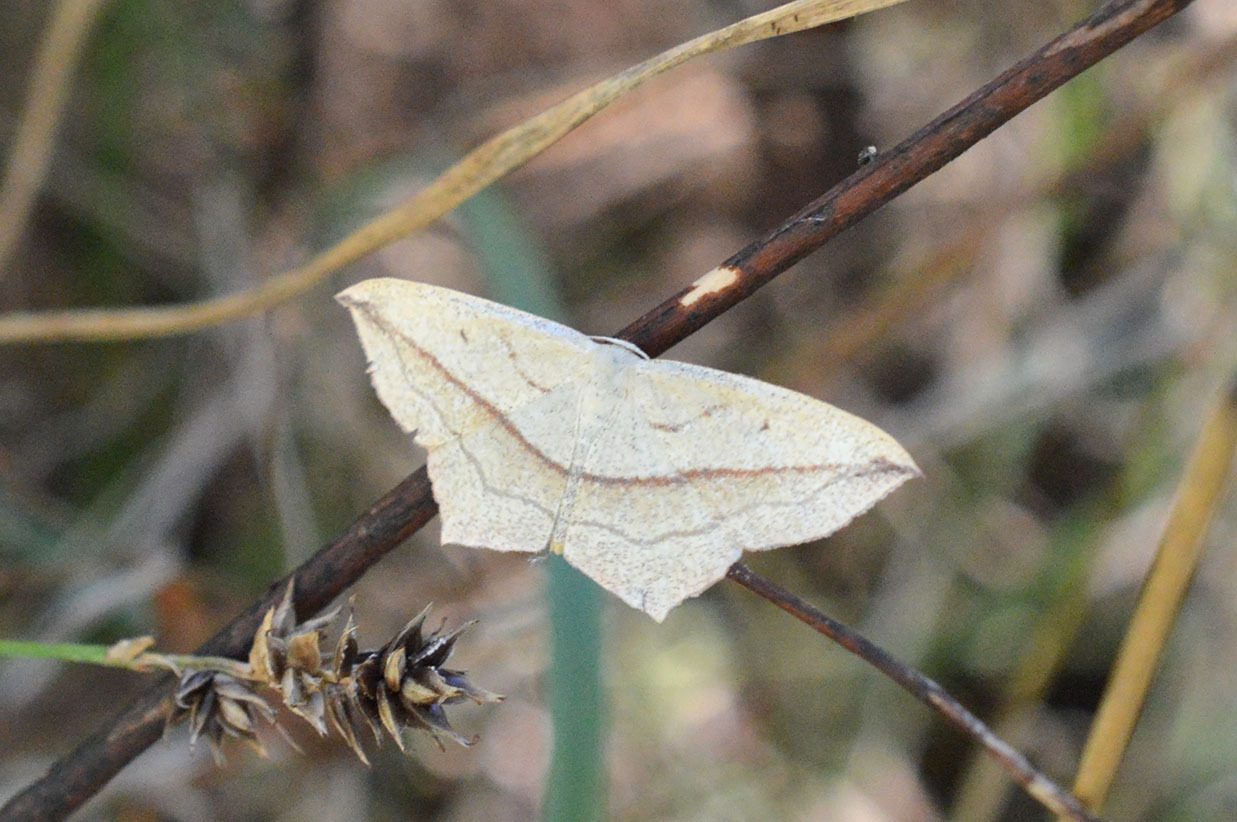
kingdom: Animalia
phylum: Arthropoda
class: Insecta
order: Lepidoptera
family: Geometridae
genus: Timandra
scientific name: Timandra comae
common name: Blood-vein
